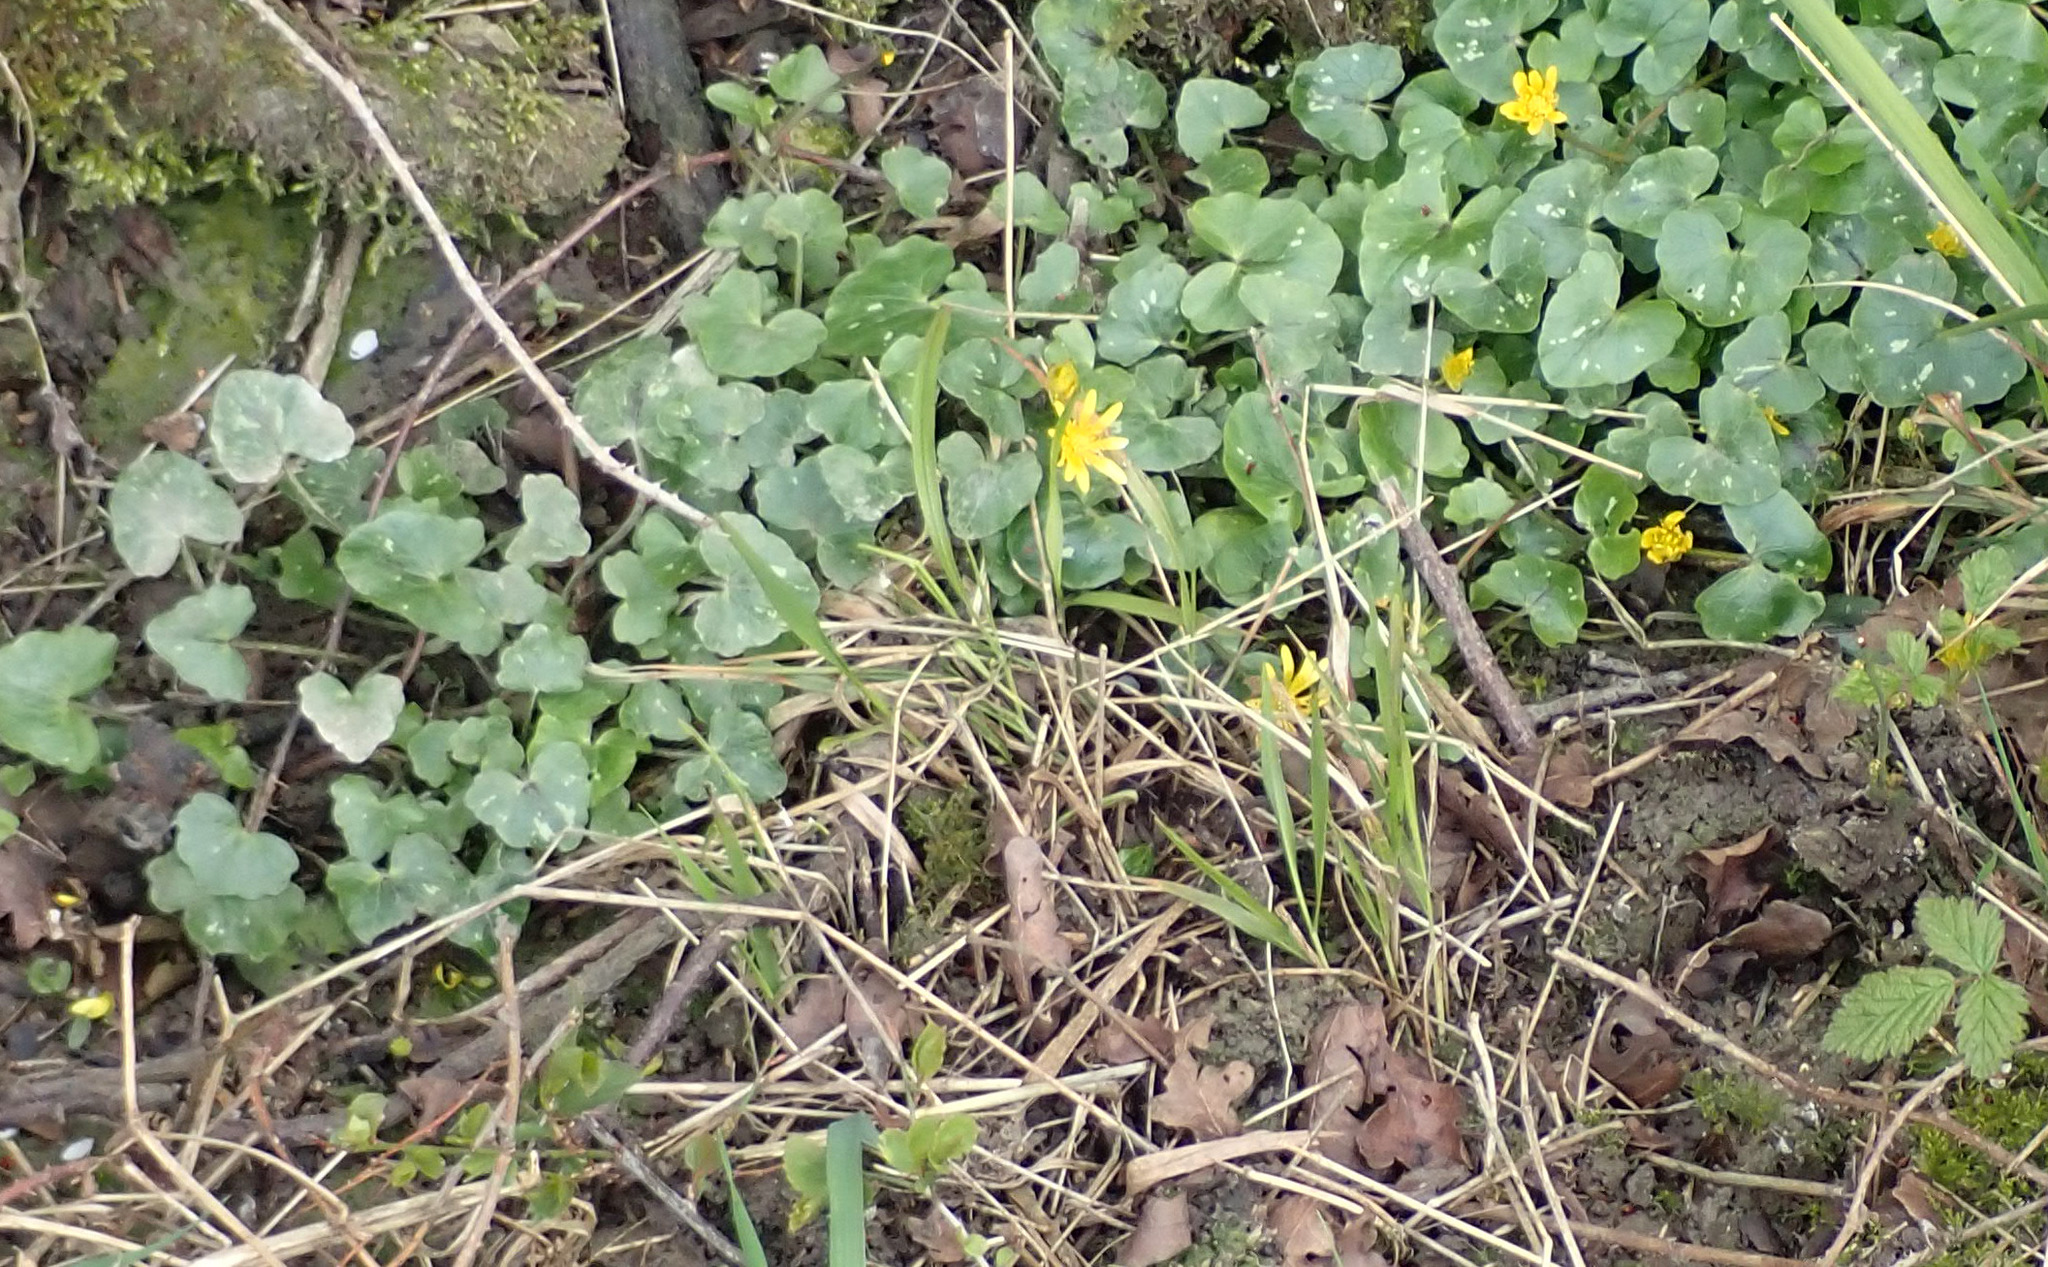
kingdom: Plantae
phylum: Tracheophyta
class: Magnoliopsida
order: Ranunculales
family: Ranunculaceae
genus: Ficaria
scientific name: Ficaria verna
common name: Lesser celandine
